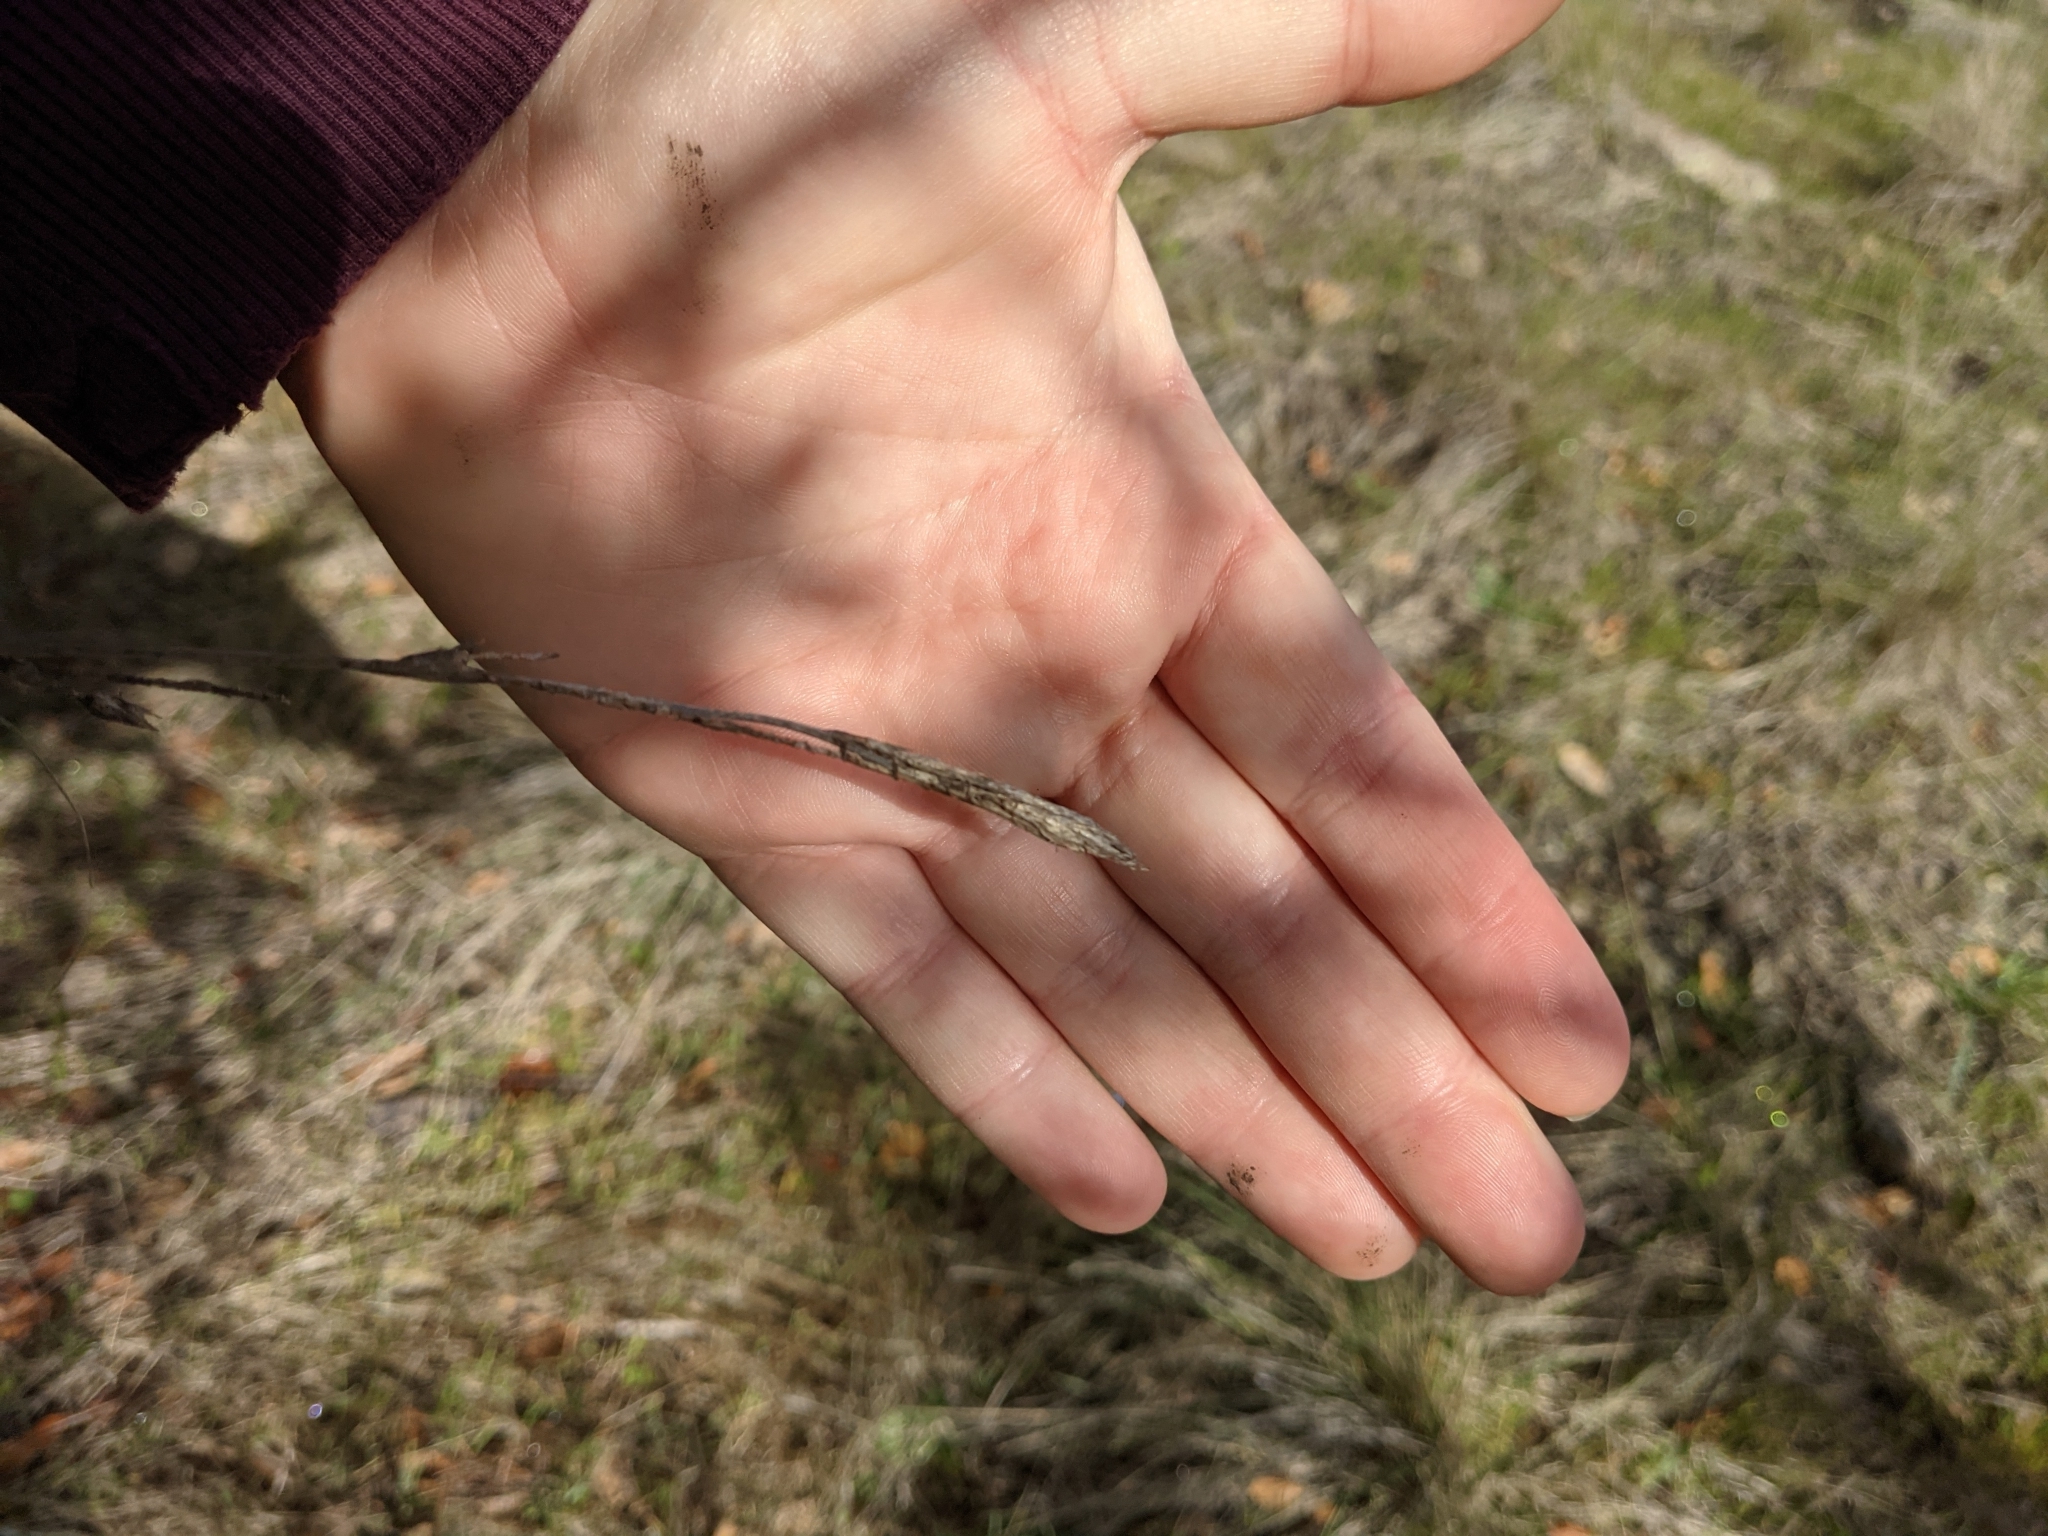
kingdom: Plantae
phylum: Tracheophyta
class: Liliopsida
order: Poales
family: Cyperaceae
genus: Carex
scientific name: Carex obispoensis
